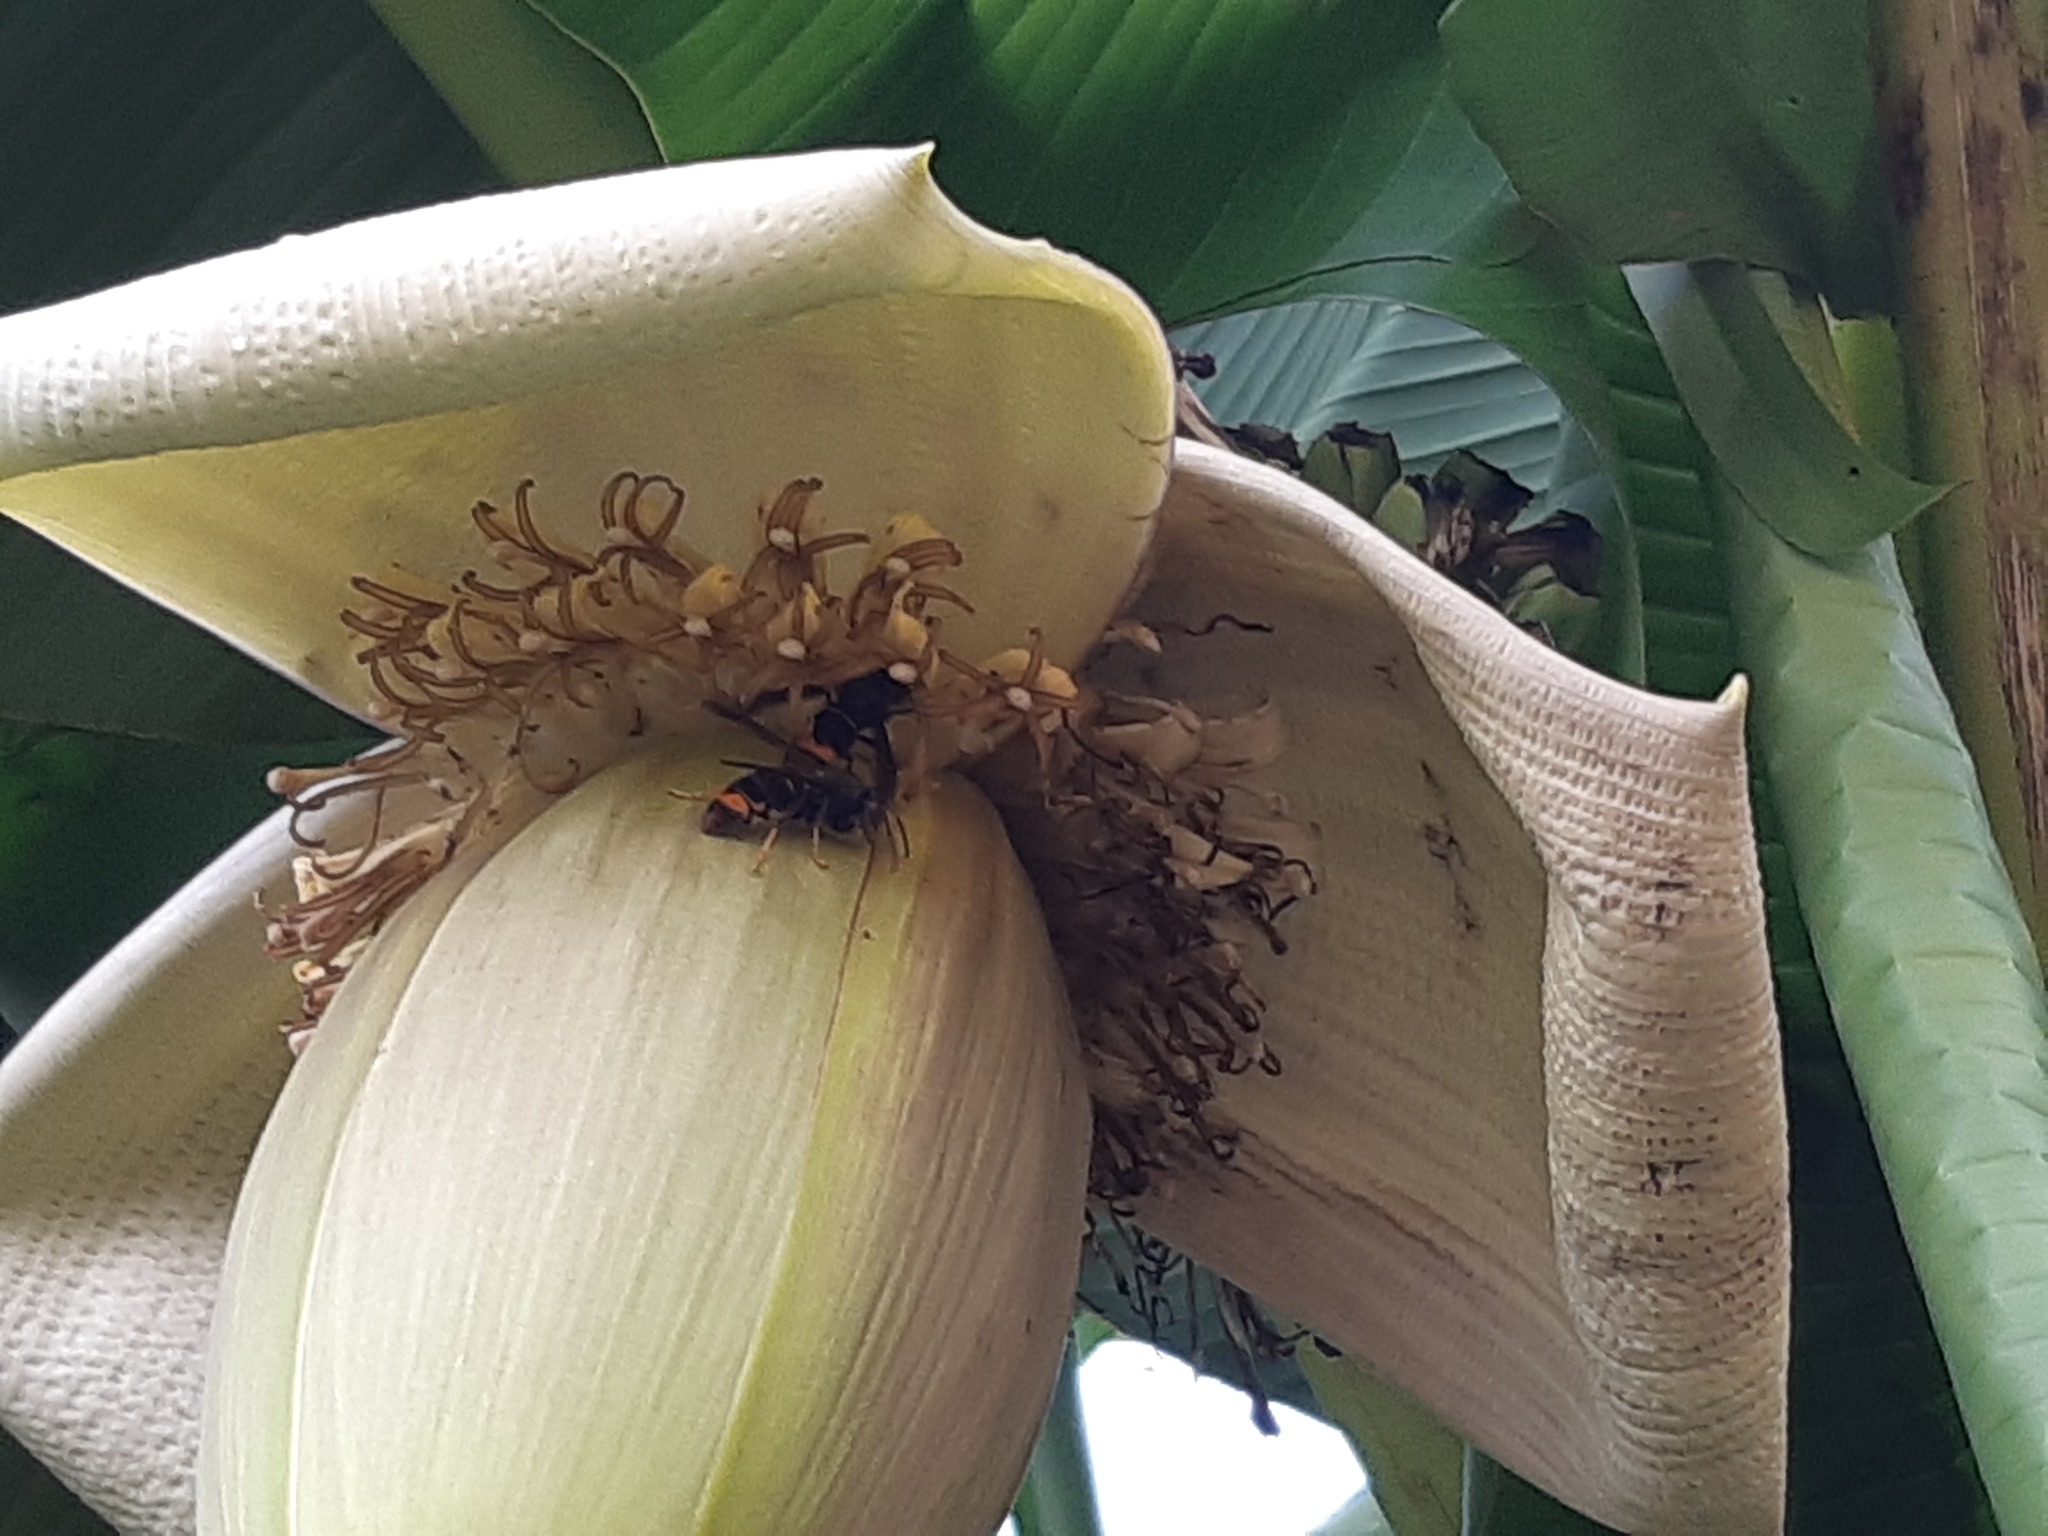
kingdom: Animalia
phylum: Arthropoda
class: Insecta
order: Hymenoptera
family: Vespidae
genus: Vespa
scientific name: Vespa velutina
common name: Asian hornet
